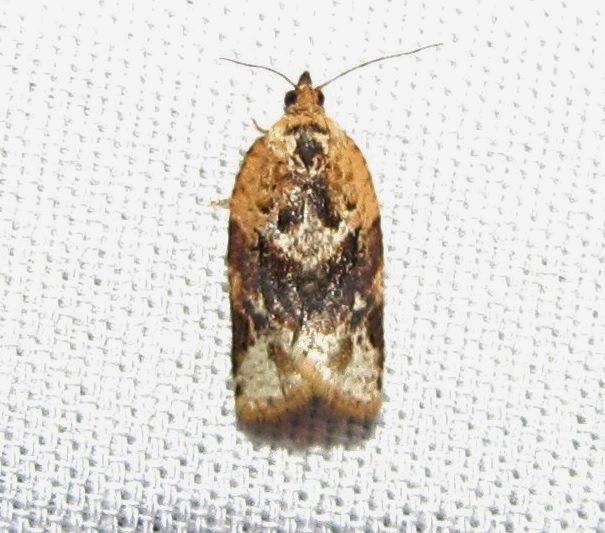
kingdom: Animalia
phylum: Arthropoda
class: Insecta
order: Lepidoptera
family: Tortricidae
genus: Argyrotaenia
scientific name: Argyrotaenia velutinana
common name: Red-banded leafroller moth
